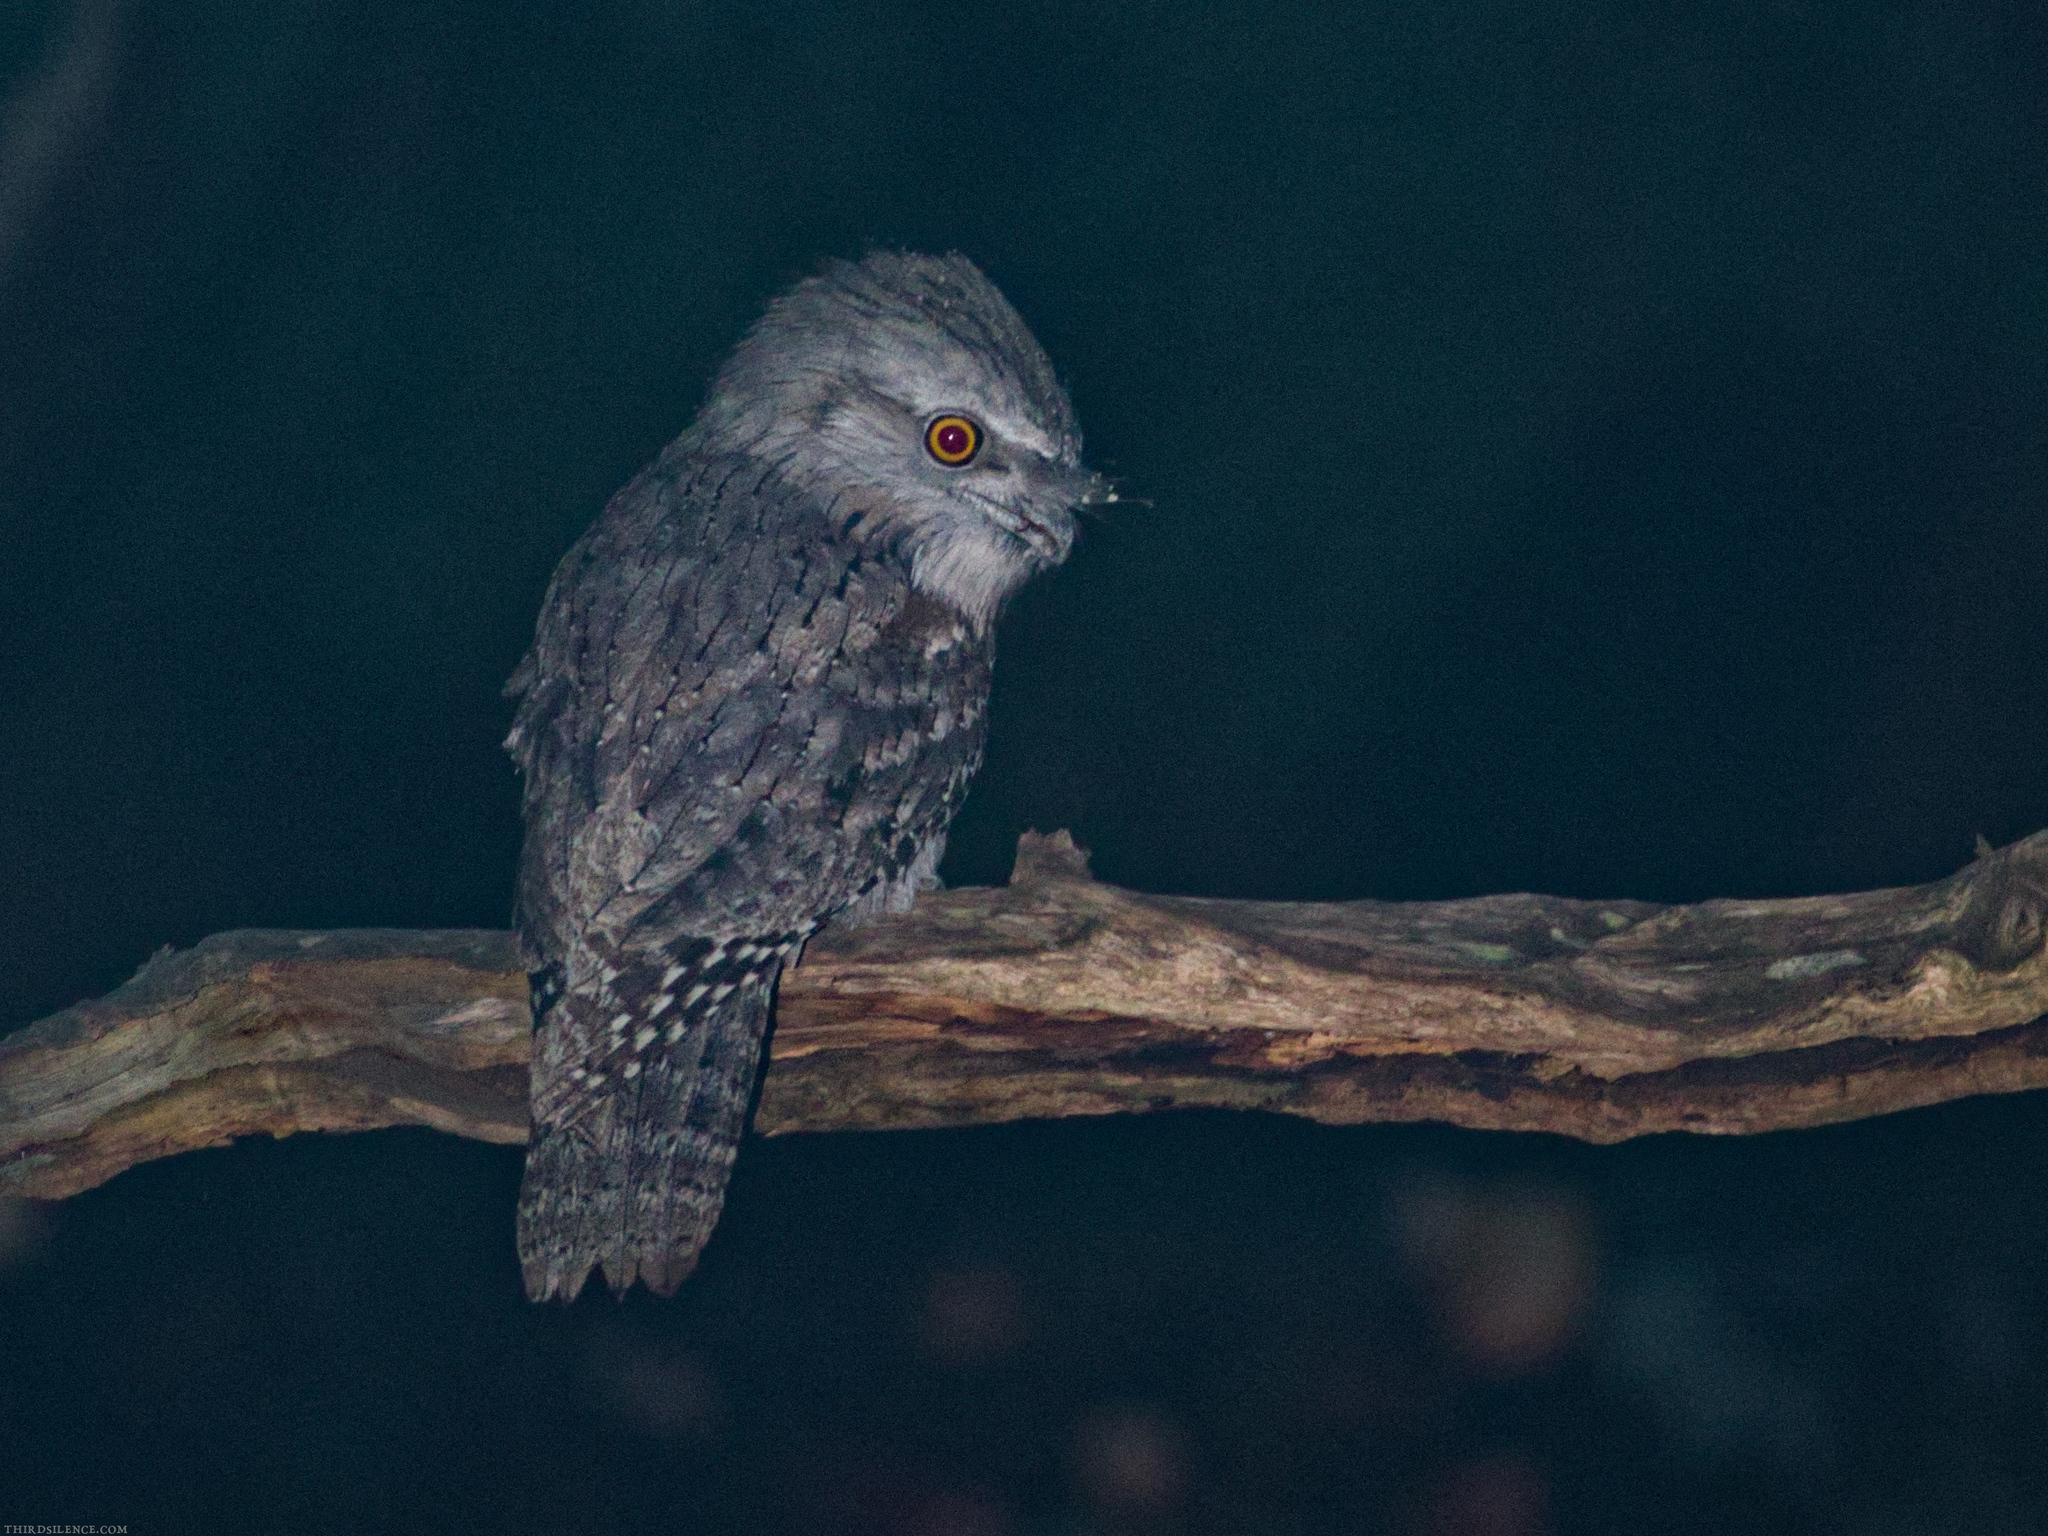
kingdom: Animalia
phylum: Chordata
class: Aves
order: Caprimulgiformes
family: Podargidae
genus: Podargus
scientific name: Podargus strigoides
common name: Tawny frogmouth
